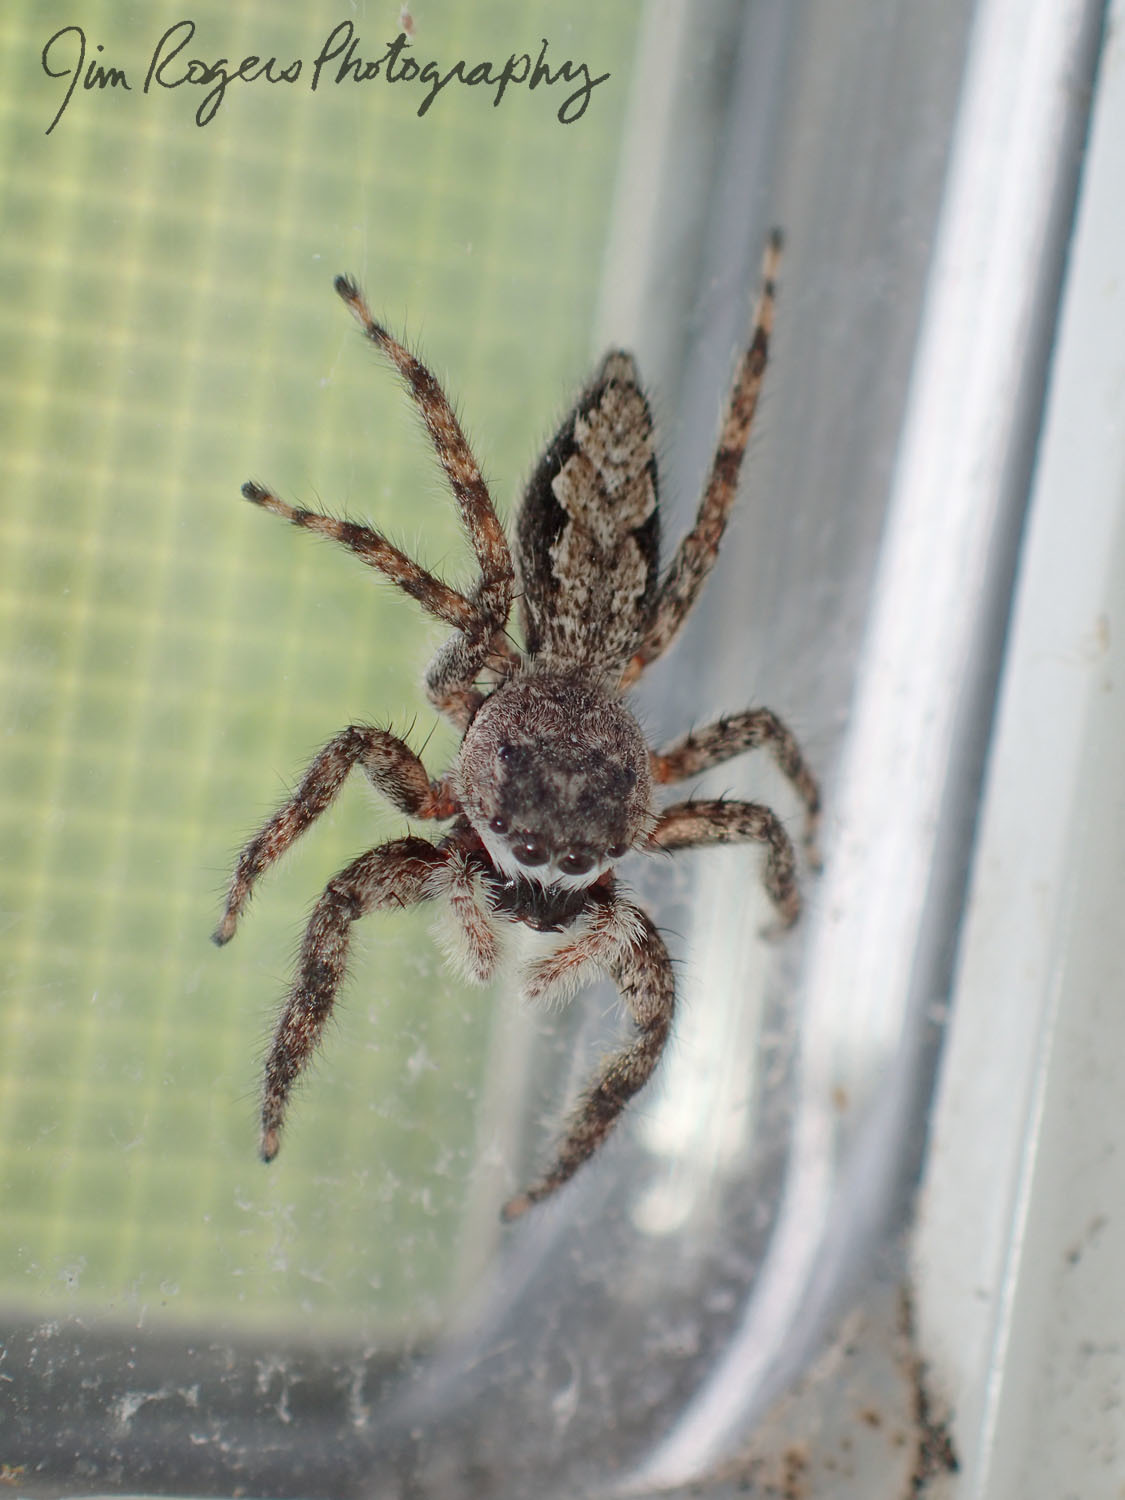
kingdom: Animalia
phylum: Arthropoda
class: Arachnida
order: Araneae
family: Salticidae
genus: Platycryptus
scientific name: Platycryptus undatus
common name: Tan jumping spider
